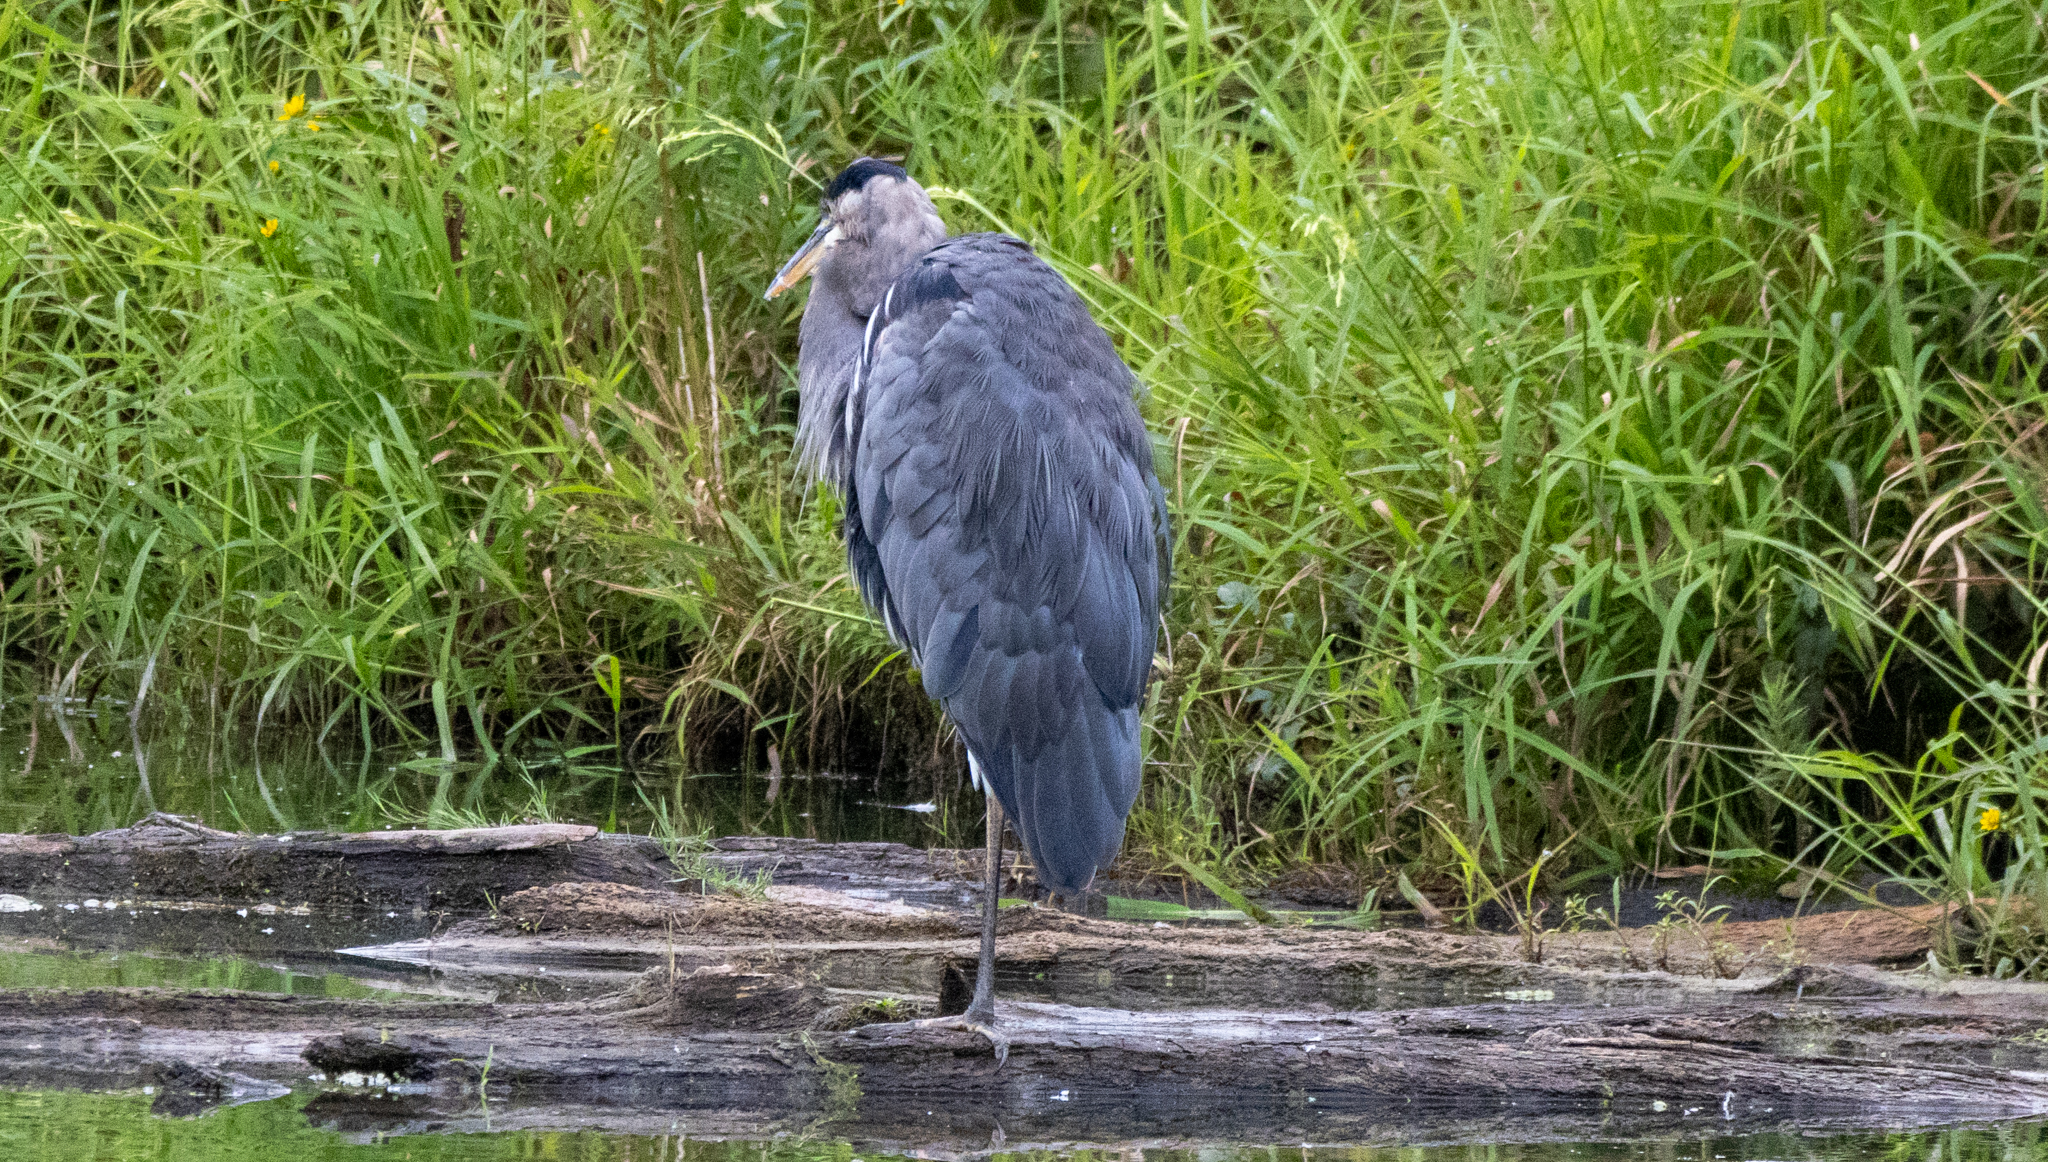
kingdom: Animalia
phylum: Chordata
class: Aves
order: Pelecaniformes
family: Ardeidae
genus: Ardea
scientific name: Ardea herodias
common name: Great blue heron
